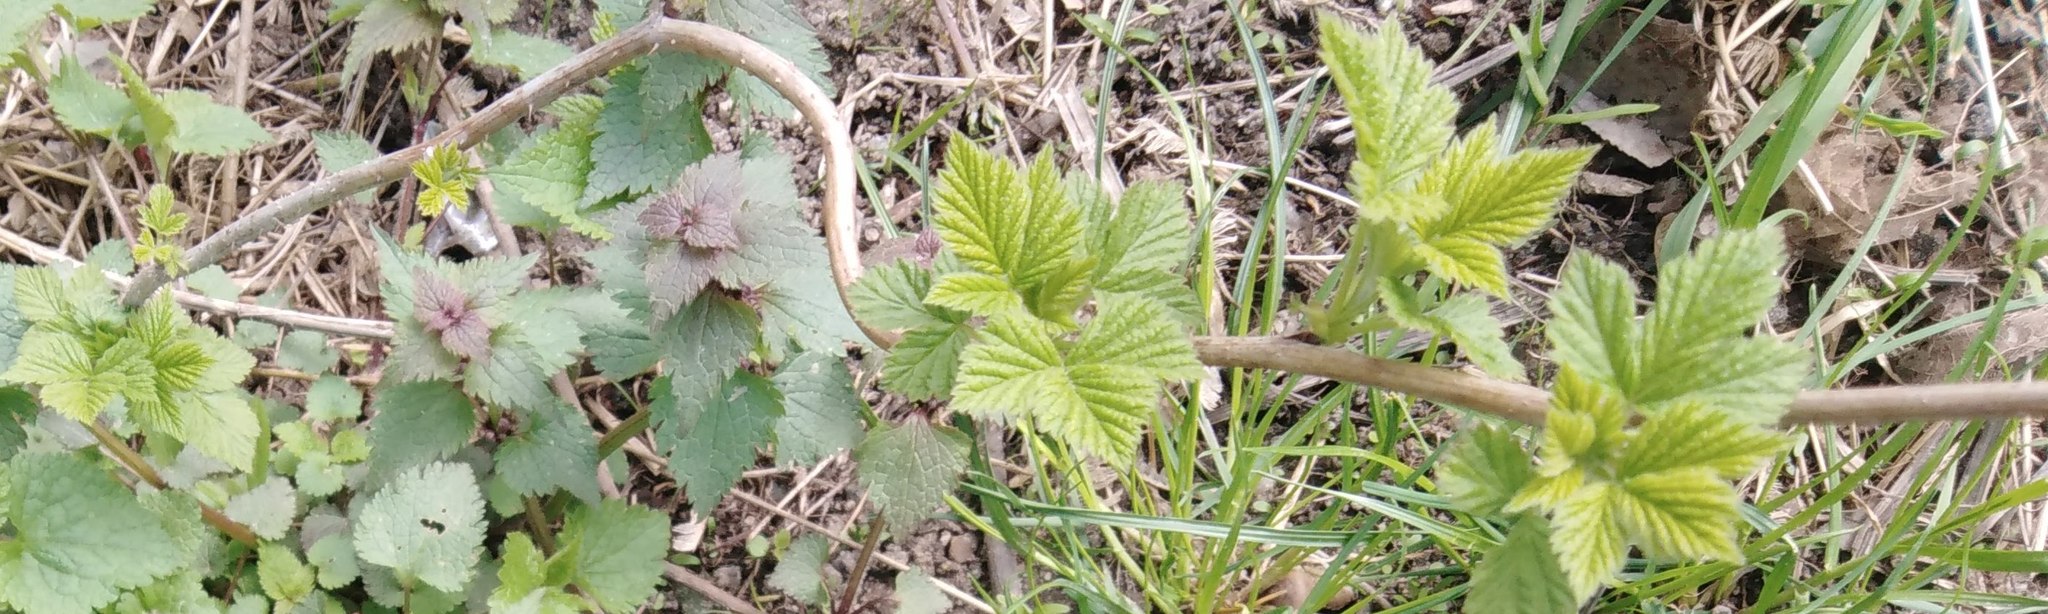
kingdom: Plantae
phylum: Tracheophyta
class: Magnoliopsida
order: Rosales
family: Rosaceae
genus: Rubus
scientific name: Rubus idaeus
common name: Raspberry
